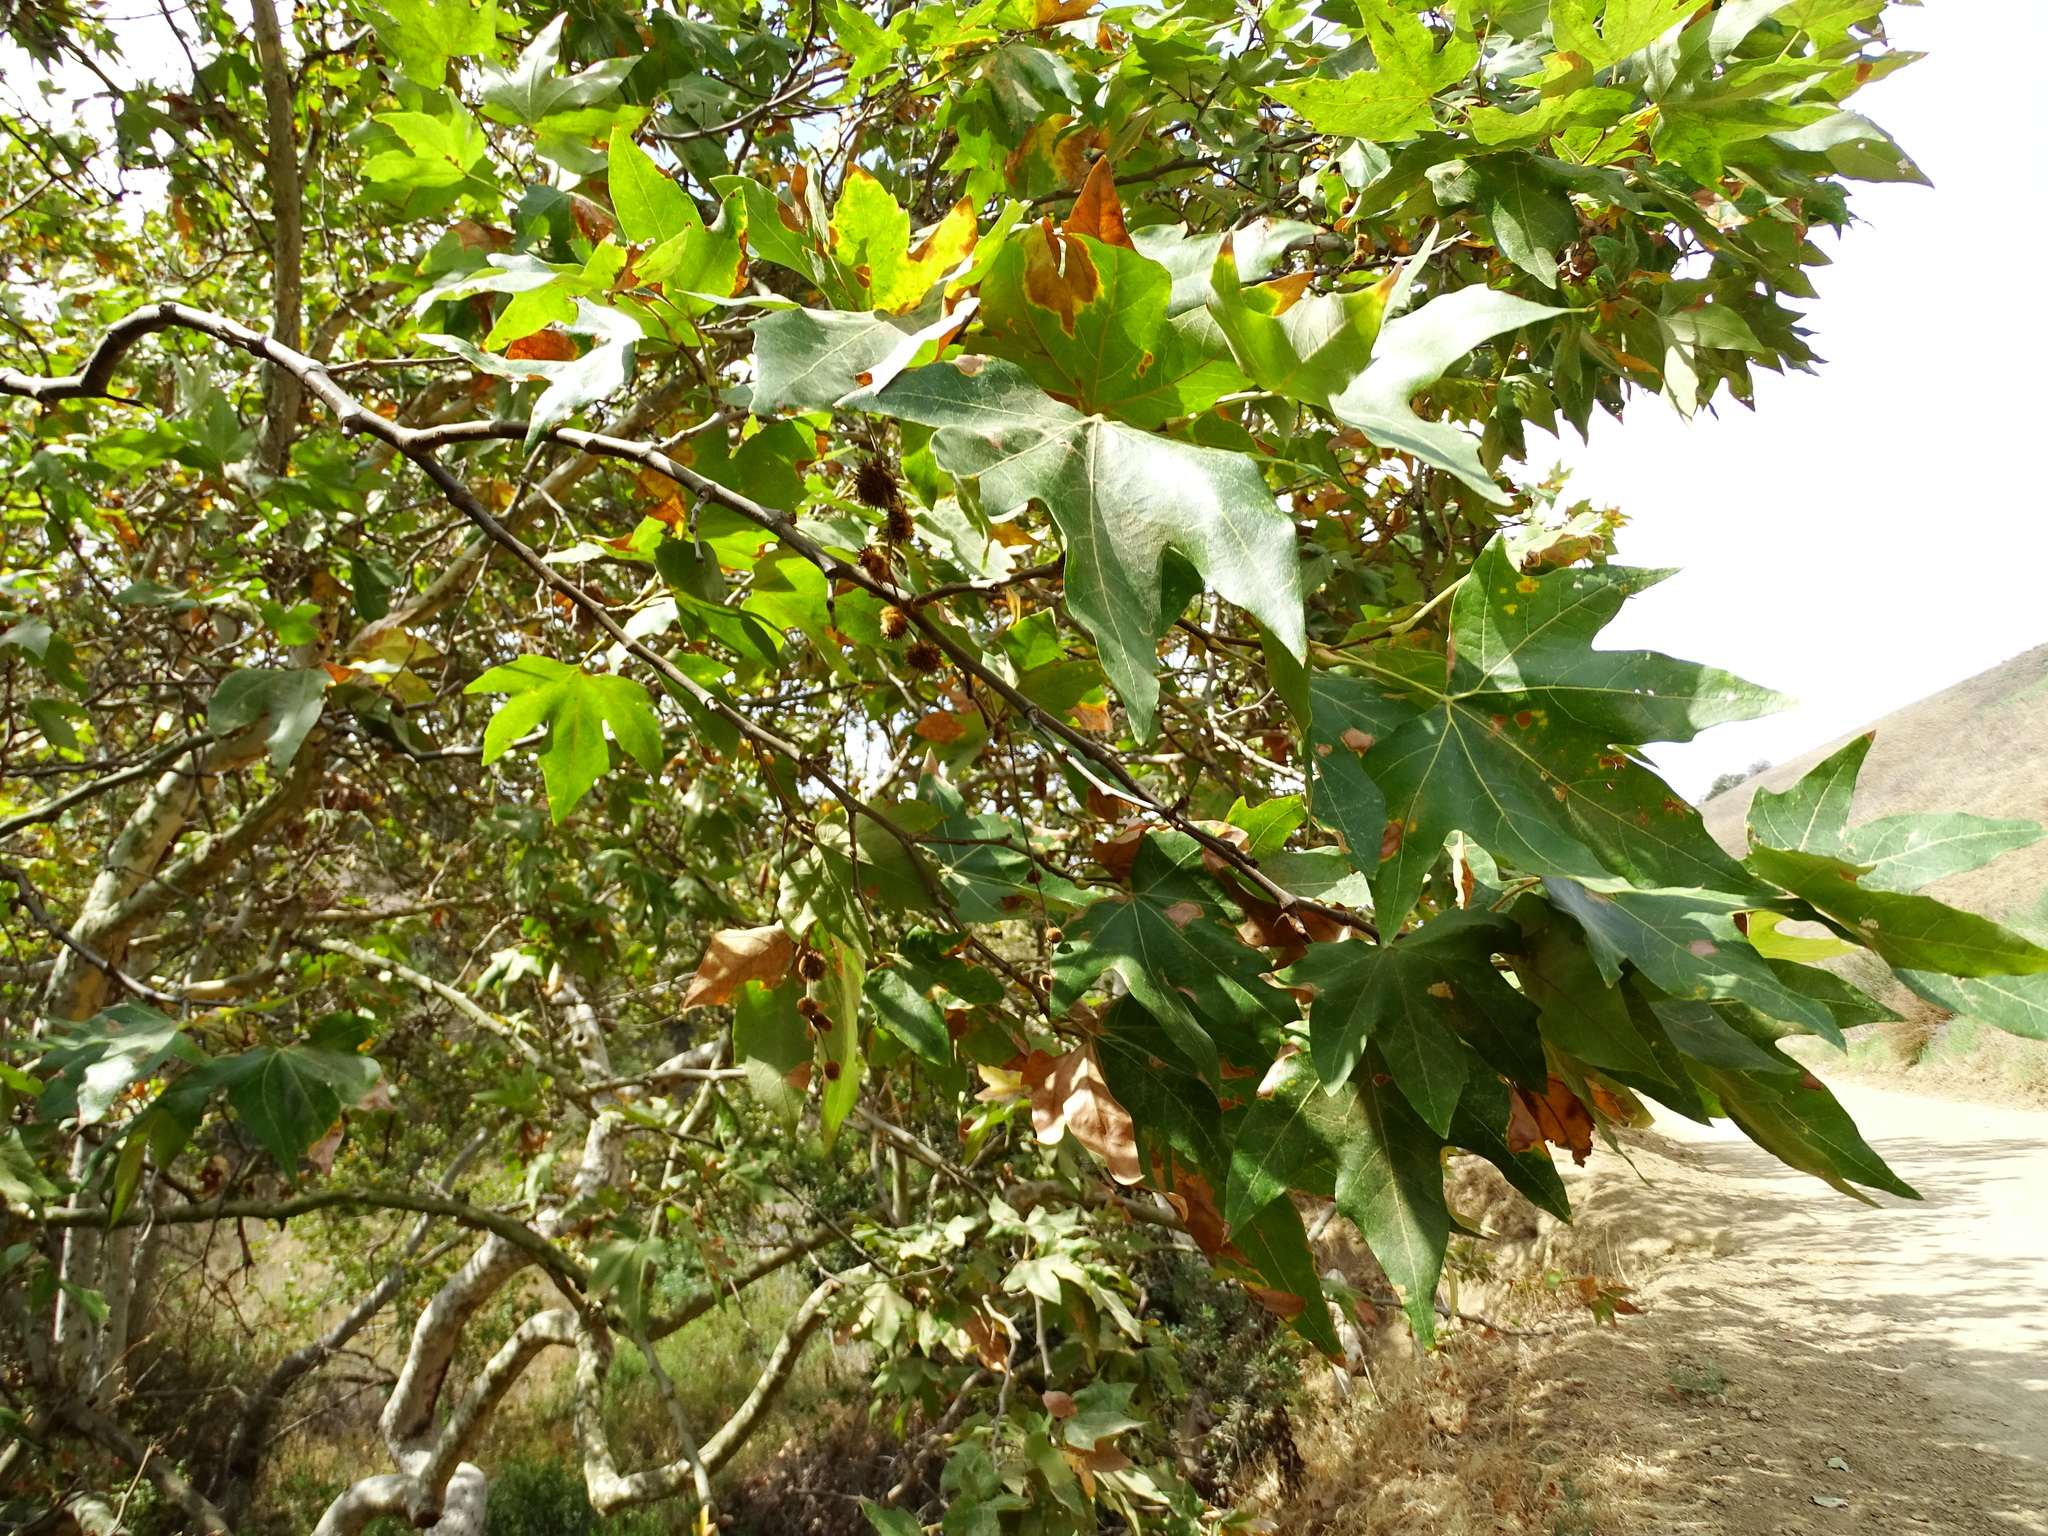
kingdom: Plantae
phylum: Tracheophyta
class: Magnoliopsida
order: Proteales
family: Platanaceae
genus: Platanus
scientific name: Platanus racemosa
